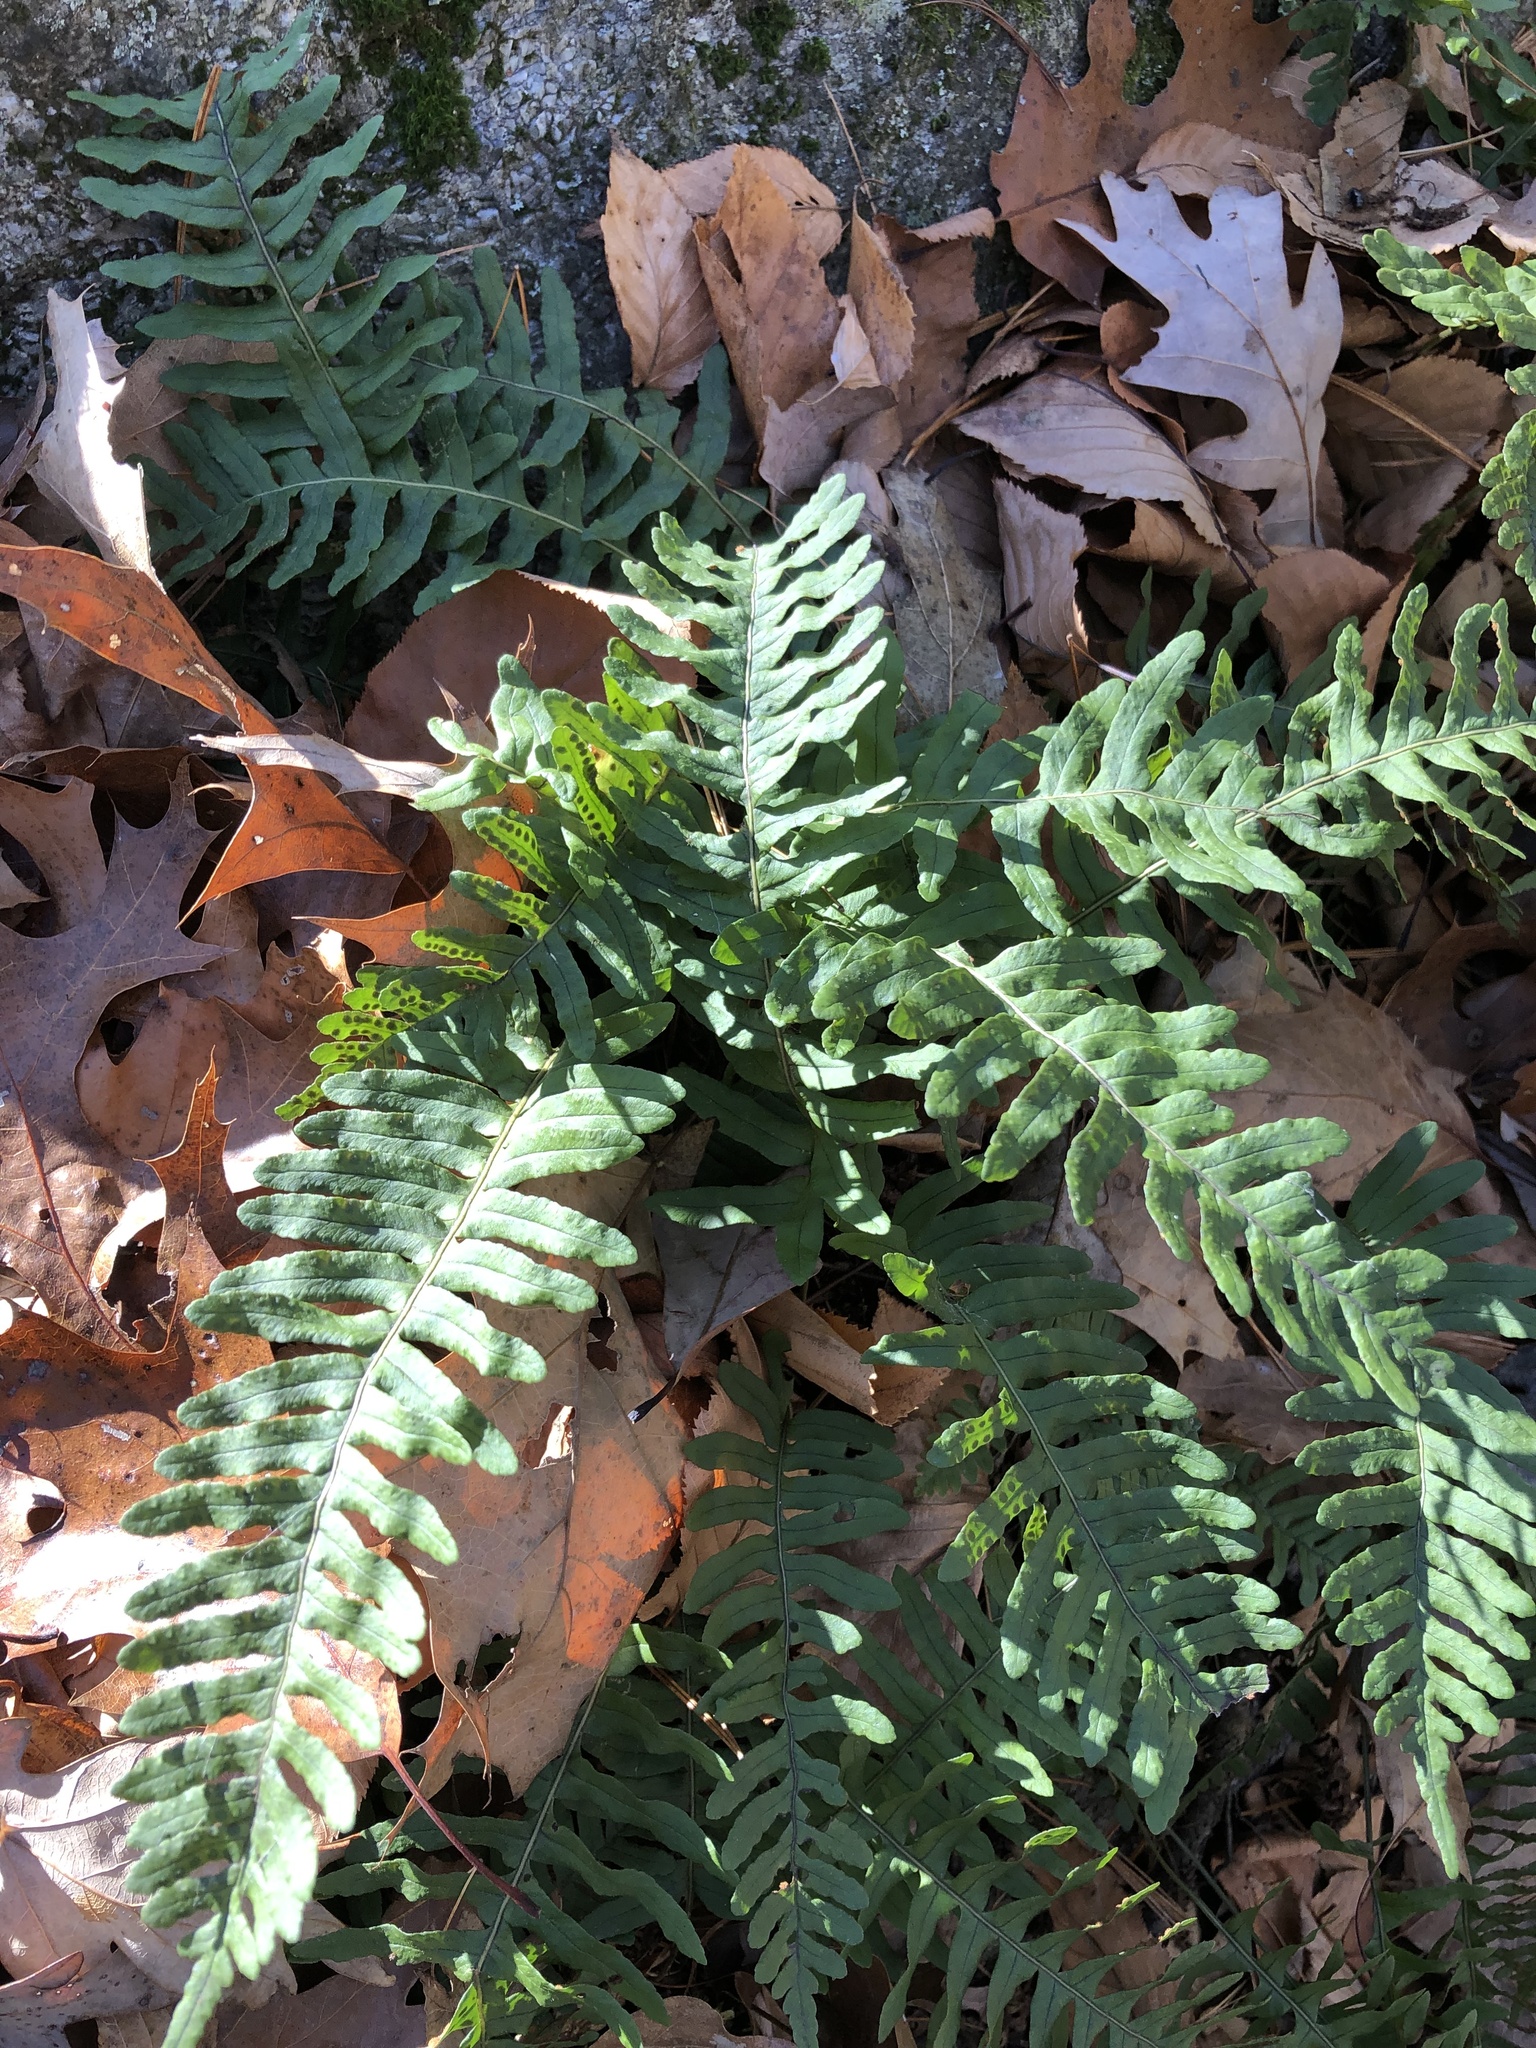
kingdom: Plantae
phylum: Tracheophyta
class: Polypodiopsida
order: Polypodiales
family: Polypodiaceae
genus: Polypodium
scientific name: Polypodium virginianum
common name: American wall fern
